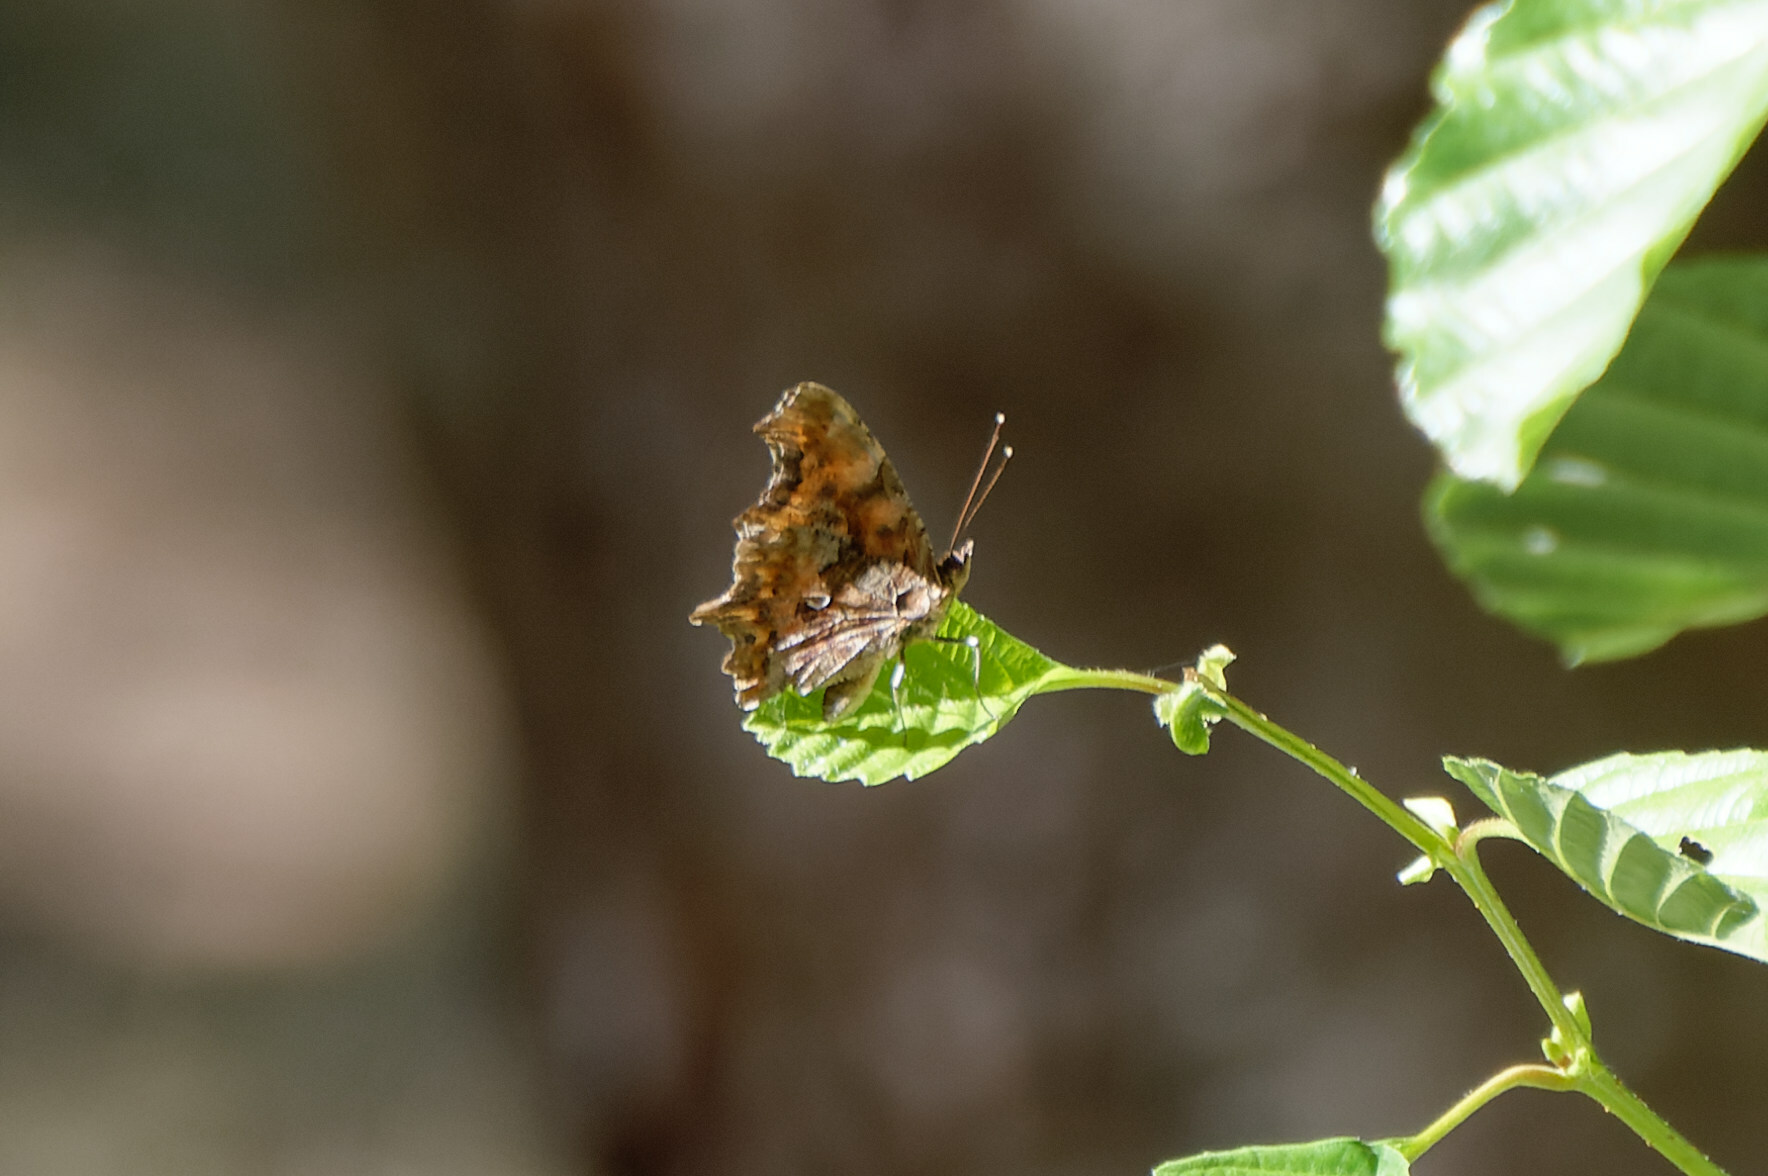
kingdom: Animalia
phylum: Arthropoda
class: Insecta
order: Lepidoptera
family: Nymphalidae
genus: Polygonia
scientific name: Polygonia c-album
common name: Comma
